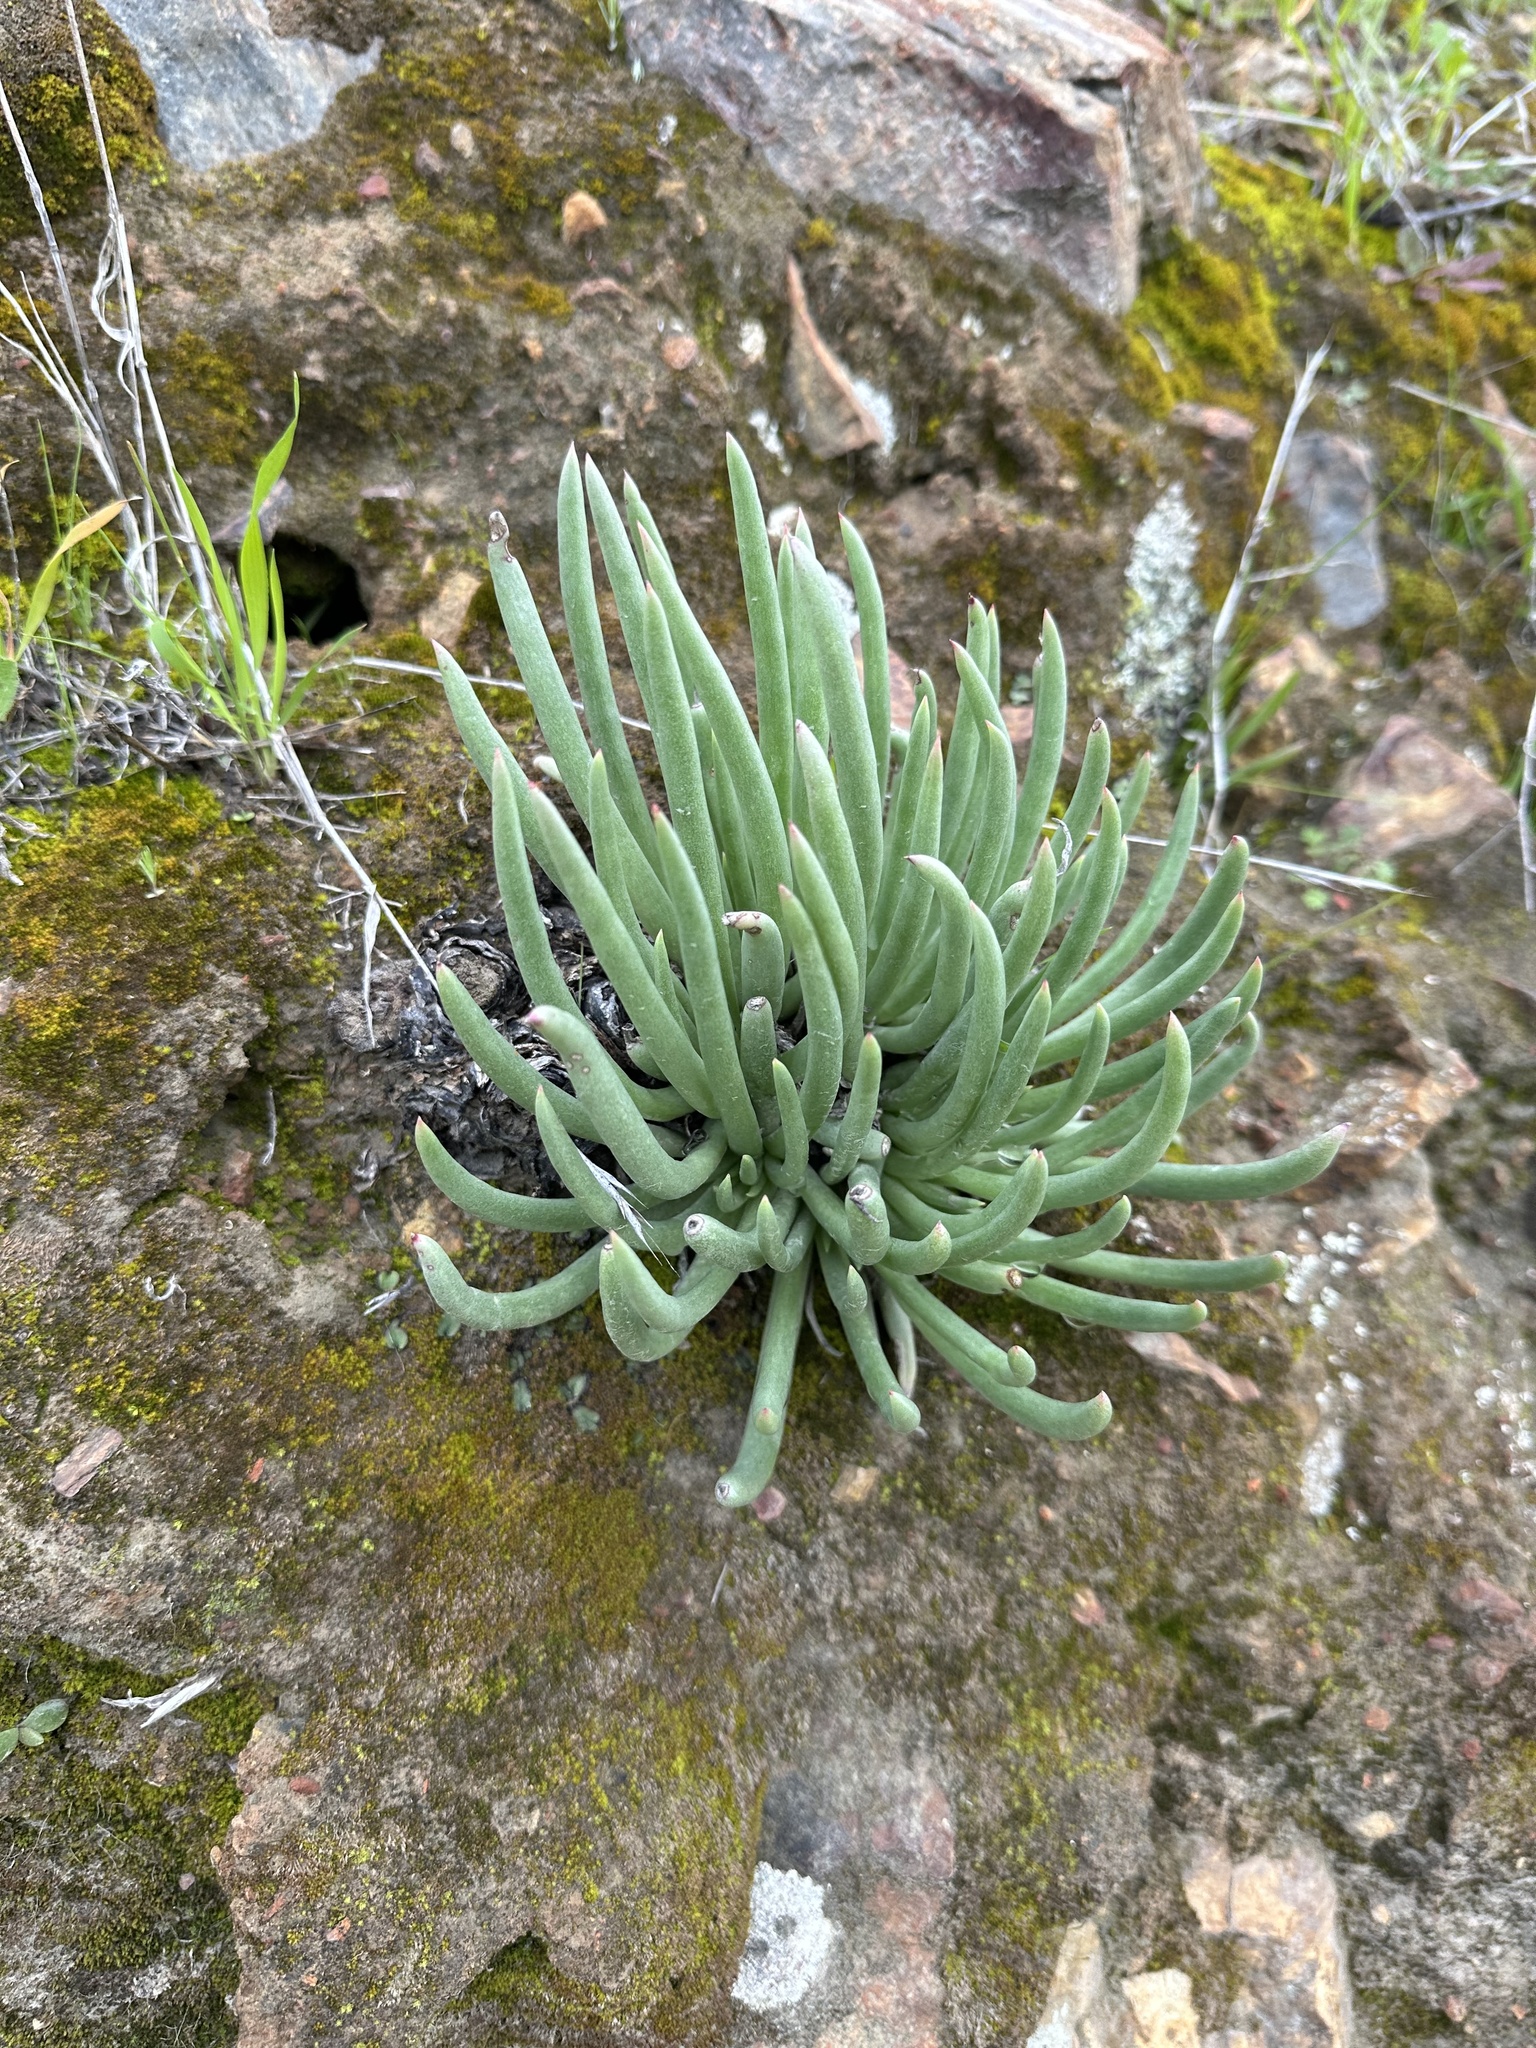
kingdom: Plantae
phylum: Tracheophyta
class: Magnoliopsida
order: Saxifragales
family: Crassulaceae
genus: Dudleya
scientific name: Dudleya edulis
